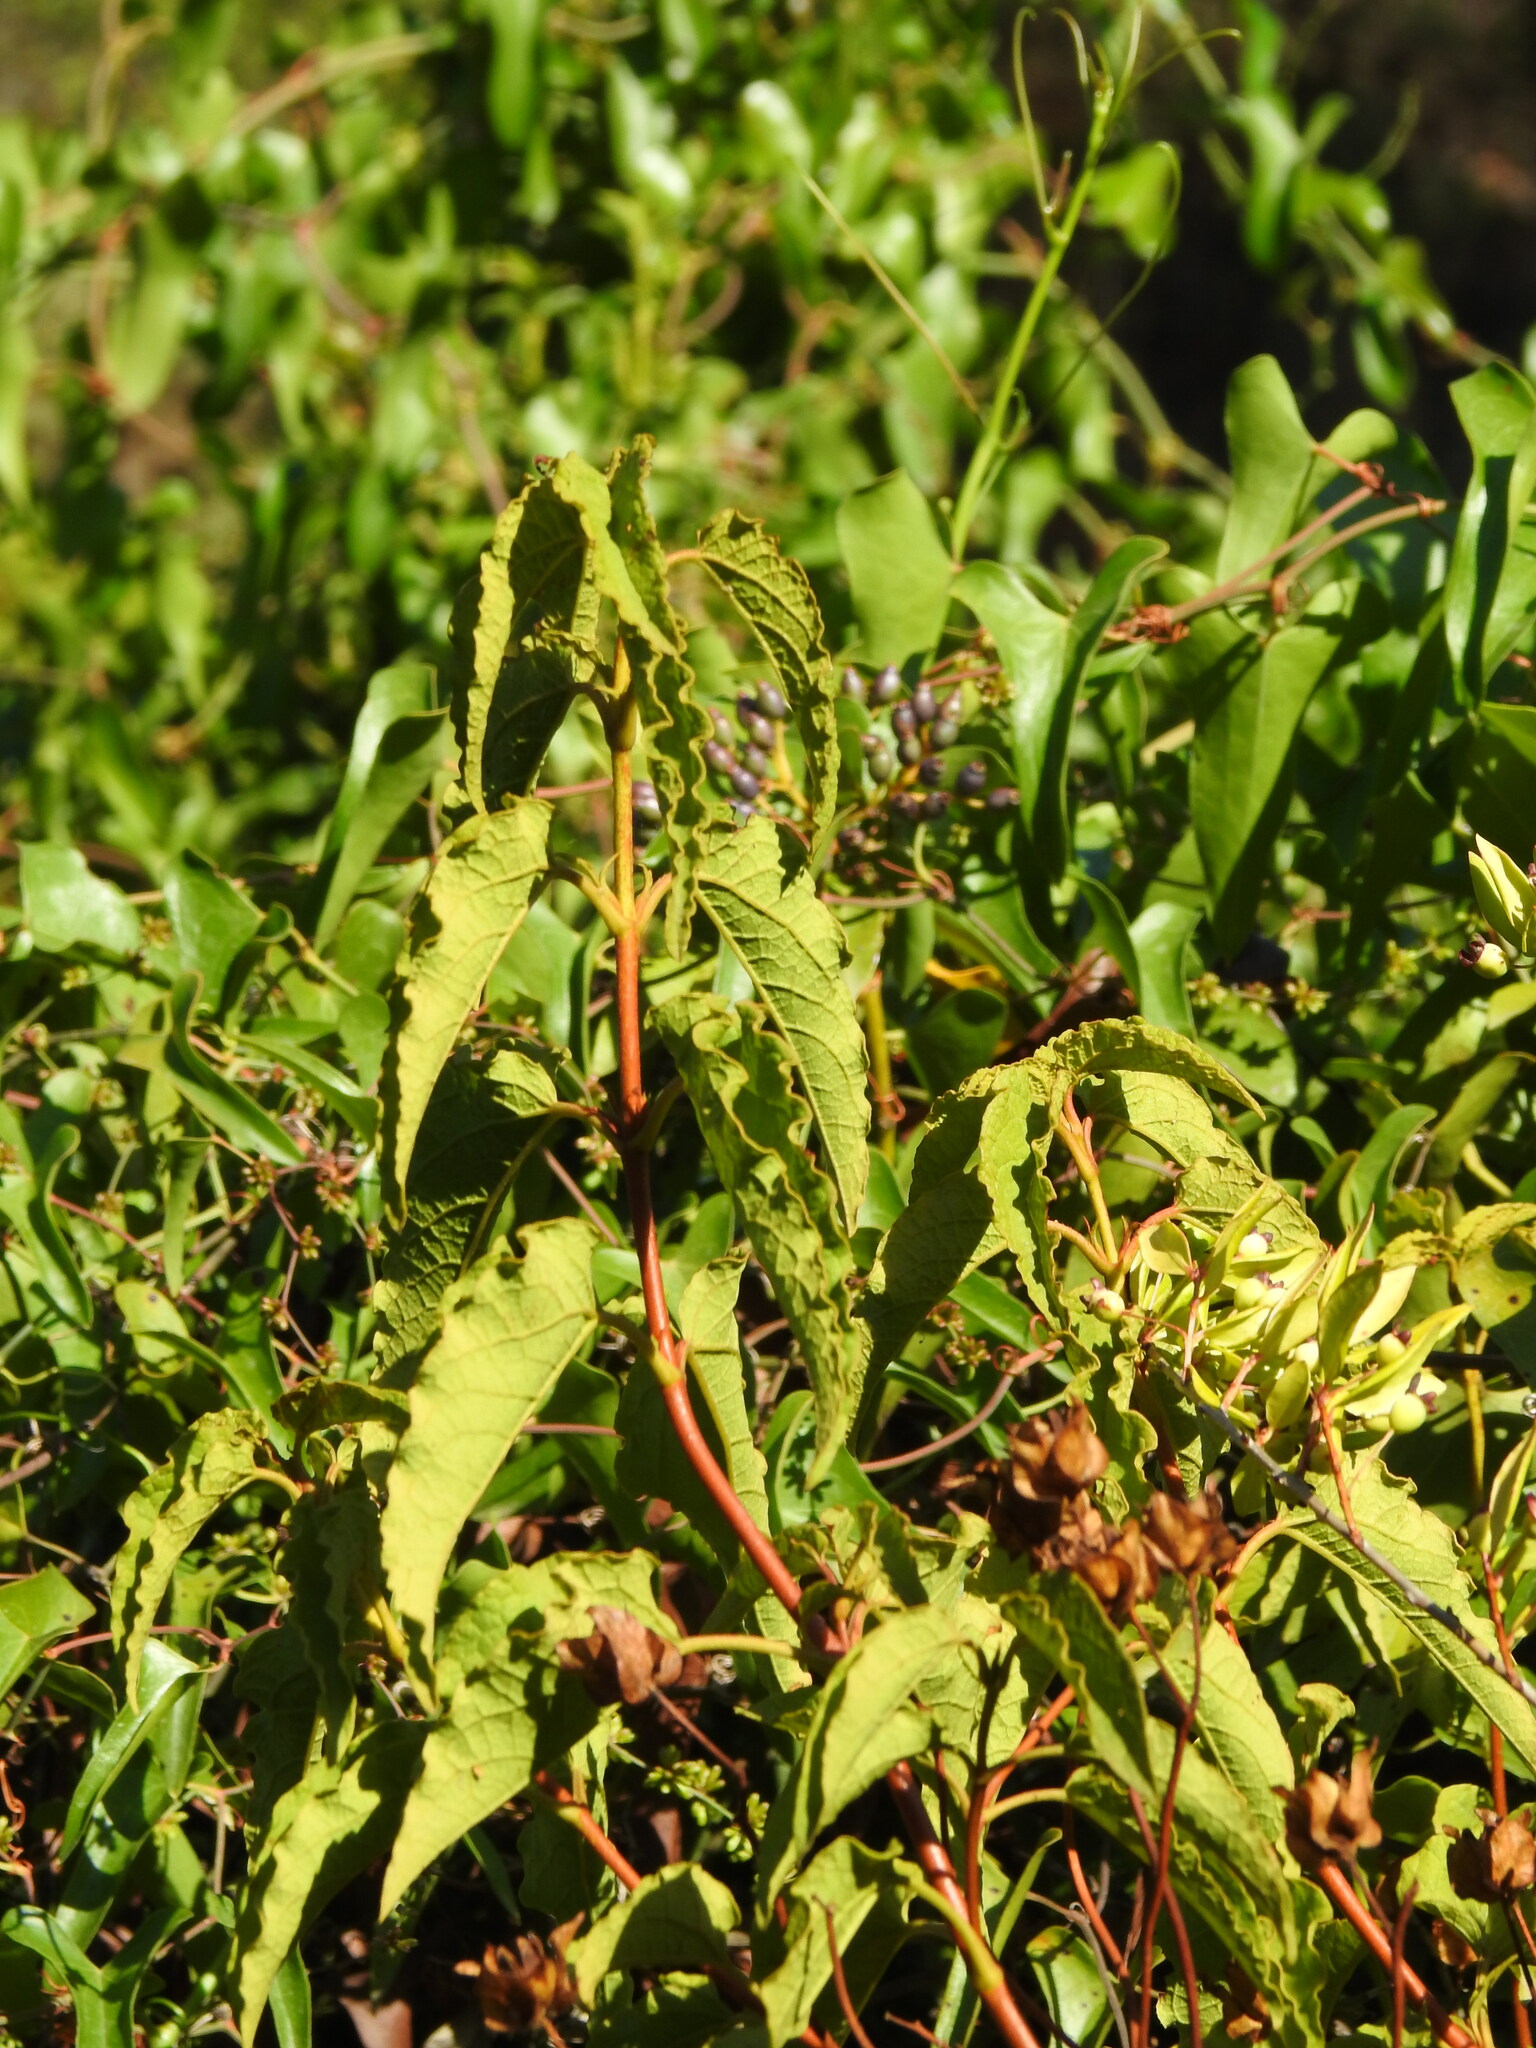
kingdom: Plantae
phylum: Tracheophyta
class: Magnoliopsida
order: Malvales
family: Cistaceae
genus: Cistus
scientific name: Cistus populifolius
